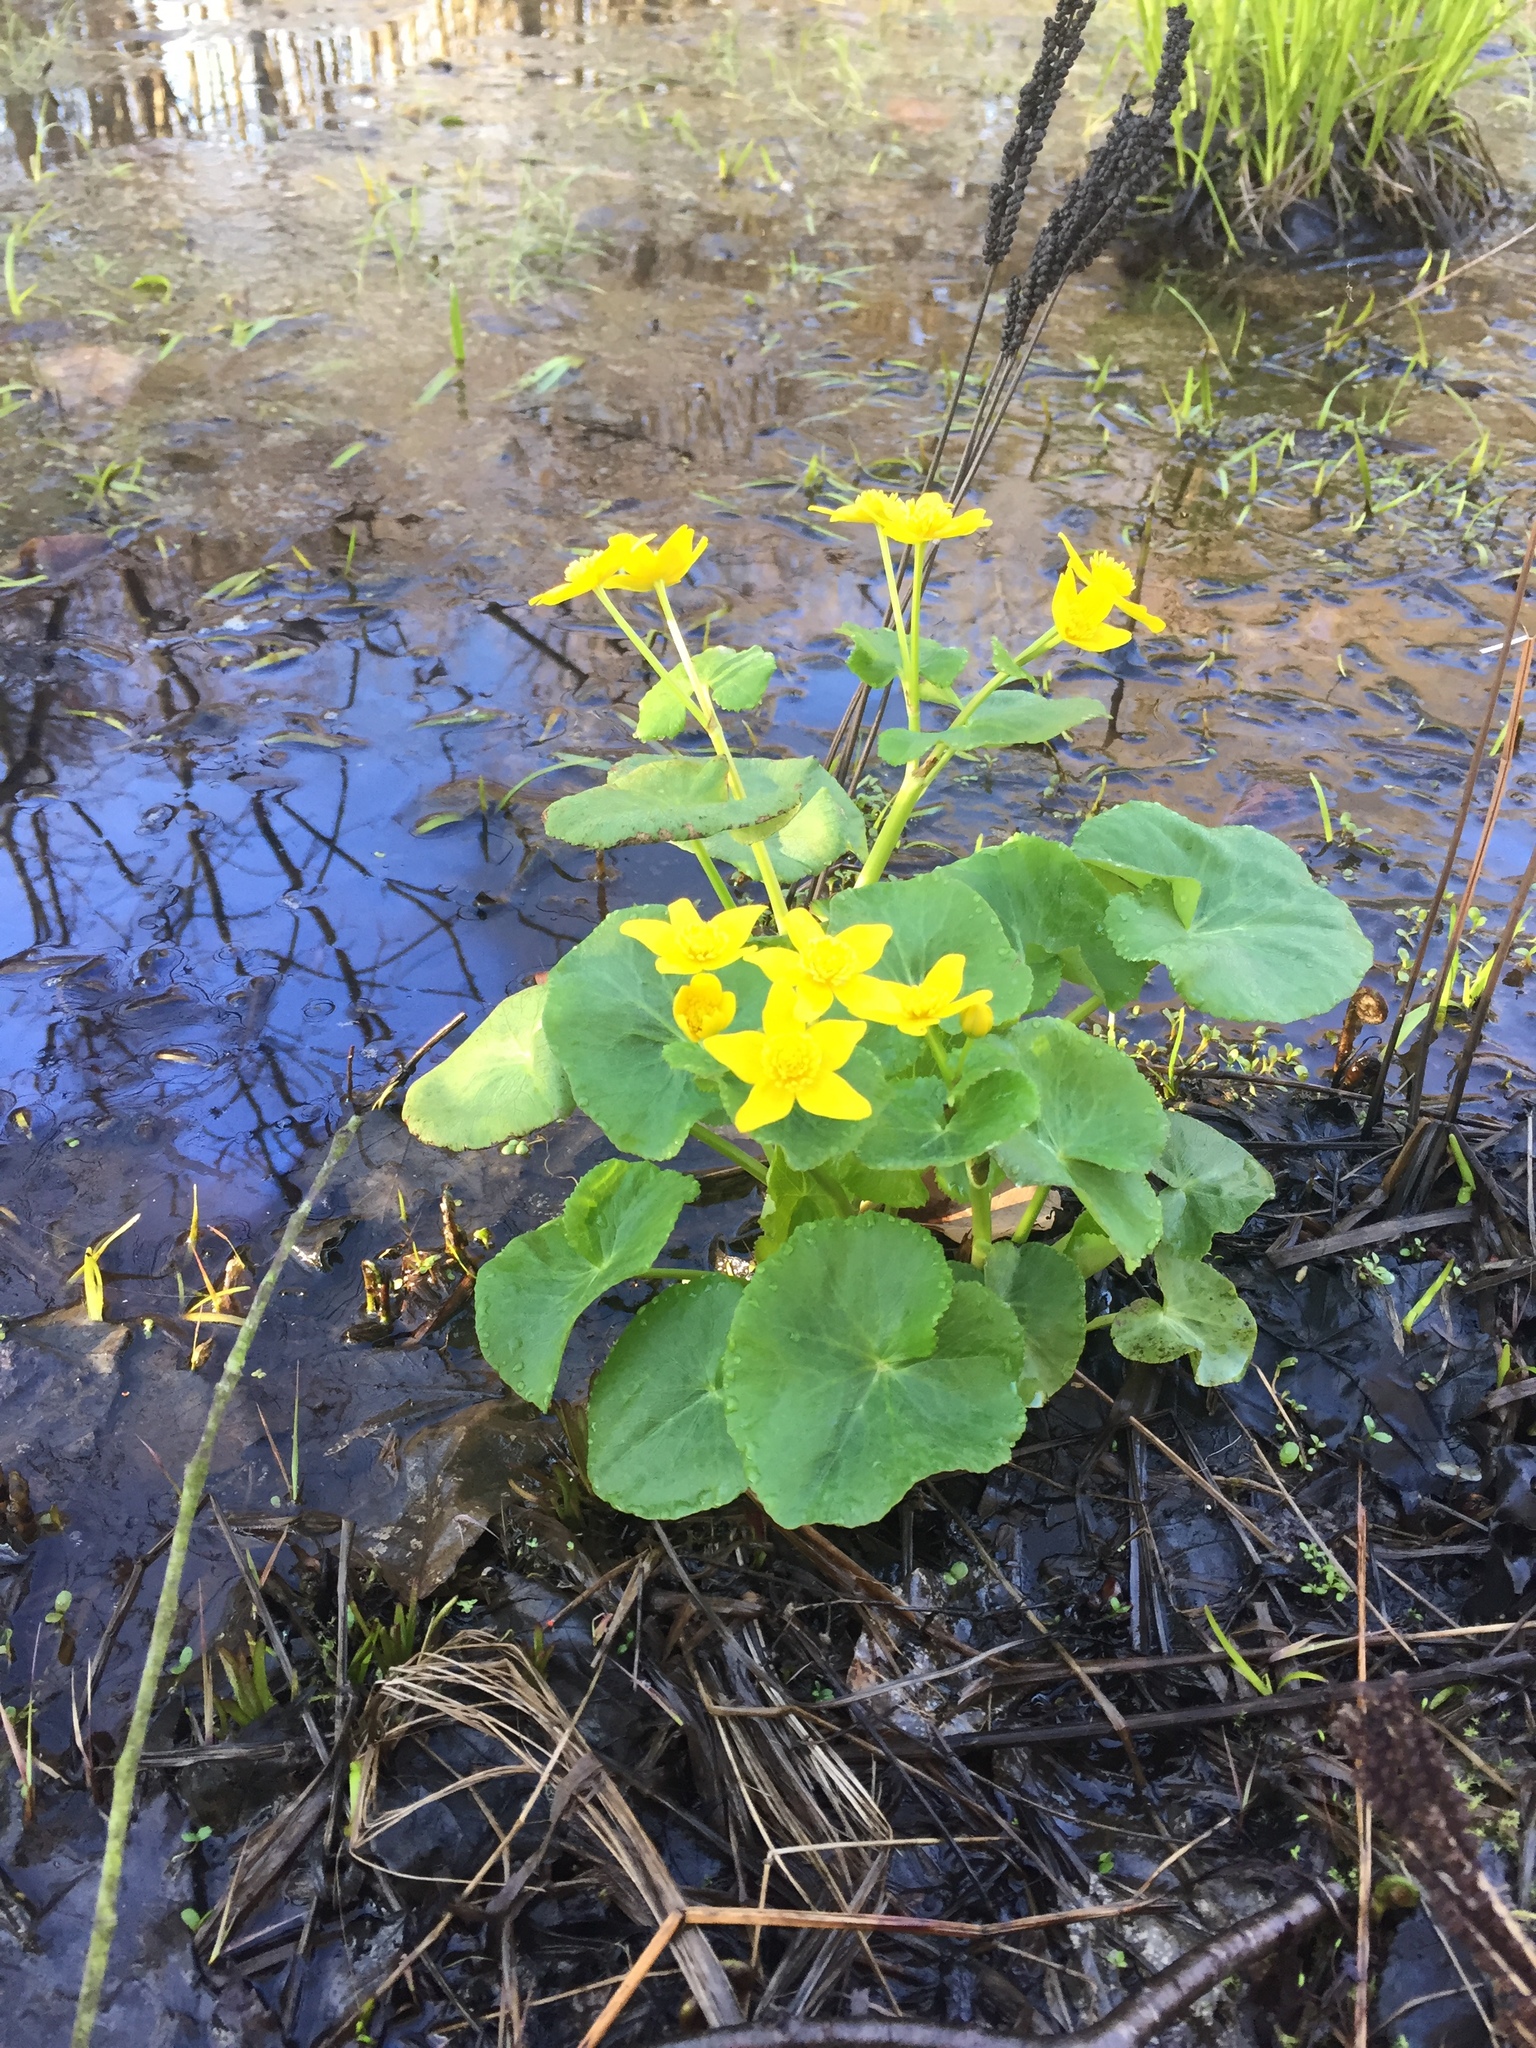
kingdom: Plantae
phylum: Tracheophyta
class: Magnoliopsida
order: Ranunculales
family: Ranunculaceae
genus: Caltha
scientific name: Caltha palustris
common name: Marsh marigold
